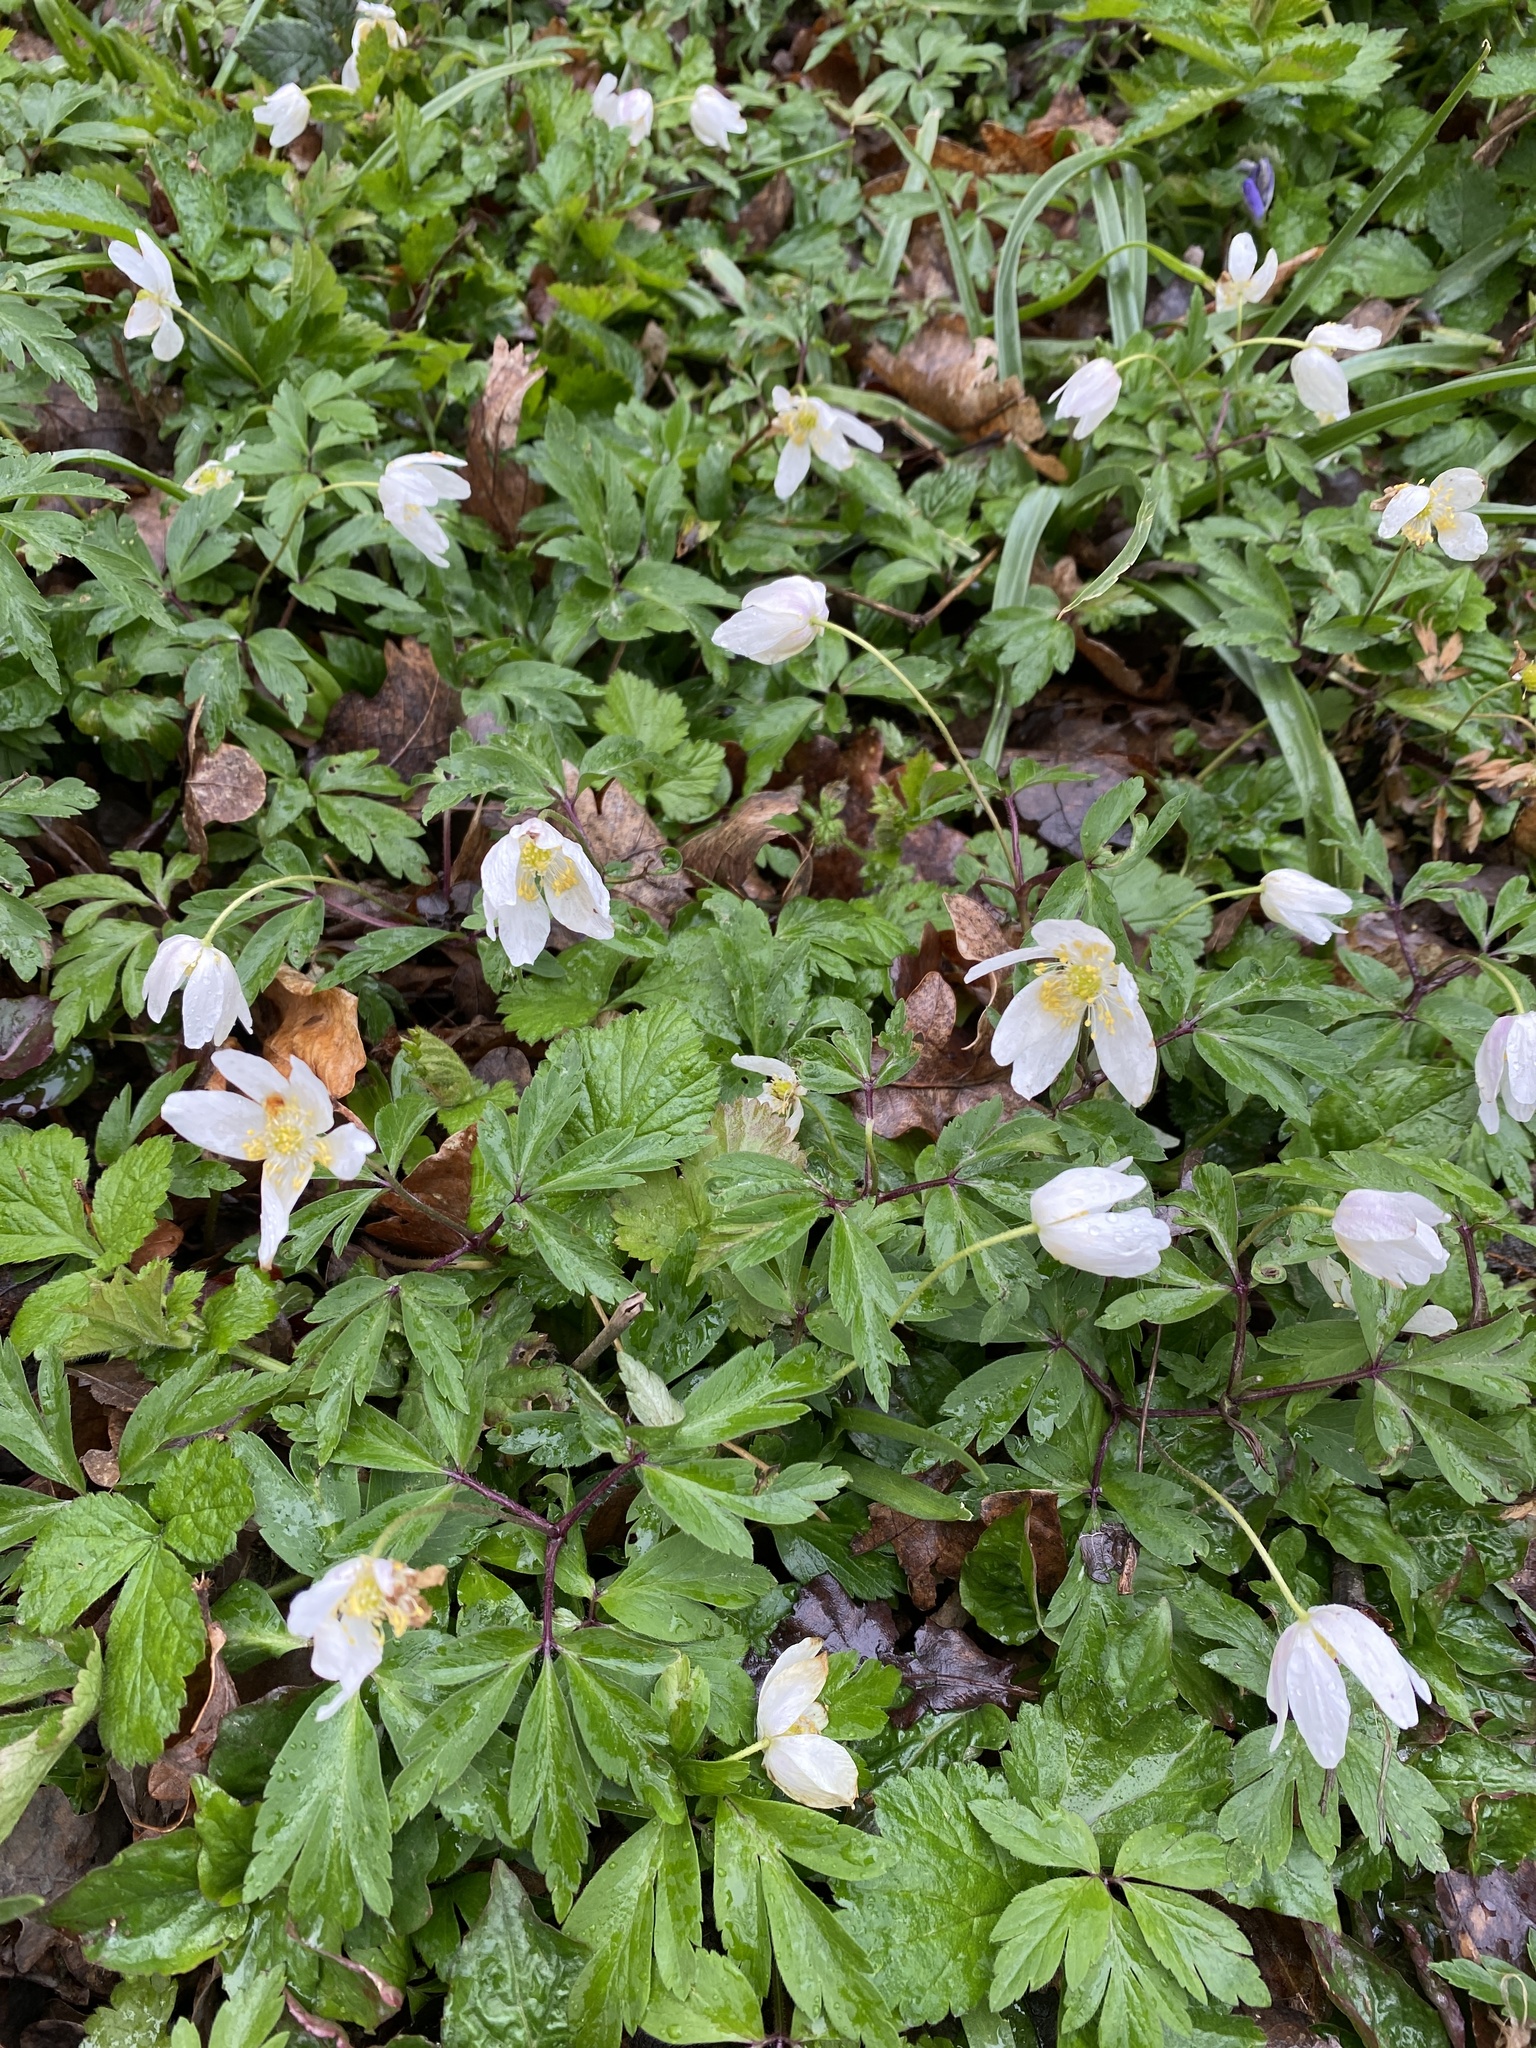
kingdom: Plantae
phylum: Tracheophyta
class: Magnoliopsida
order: Ranunculales
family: Ranunculaceae
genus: Anemone
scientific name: Anemone nemorosa
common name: Wood anemone
